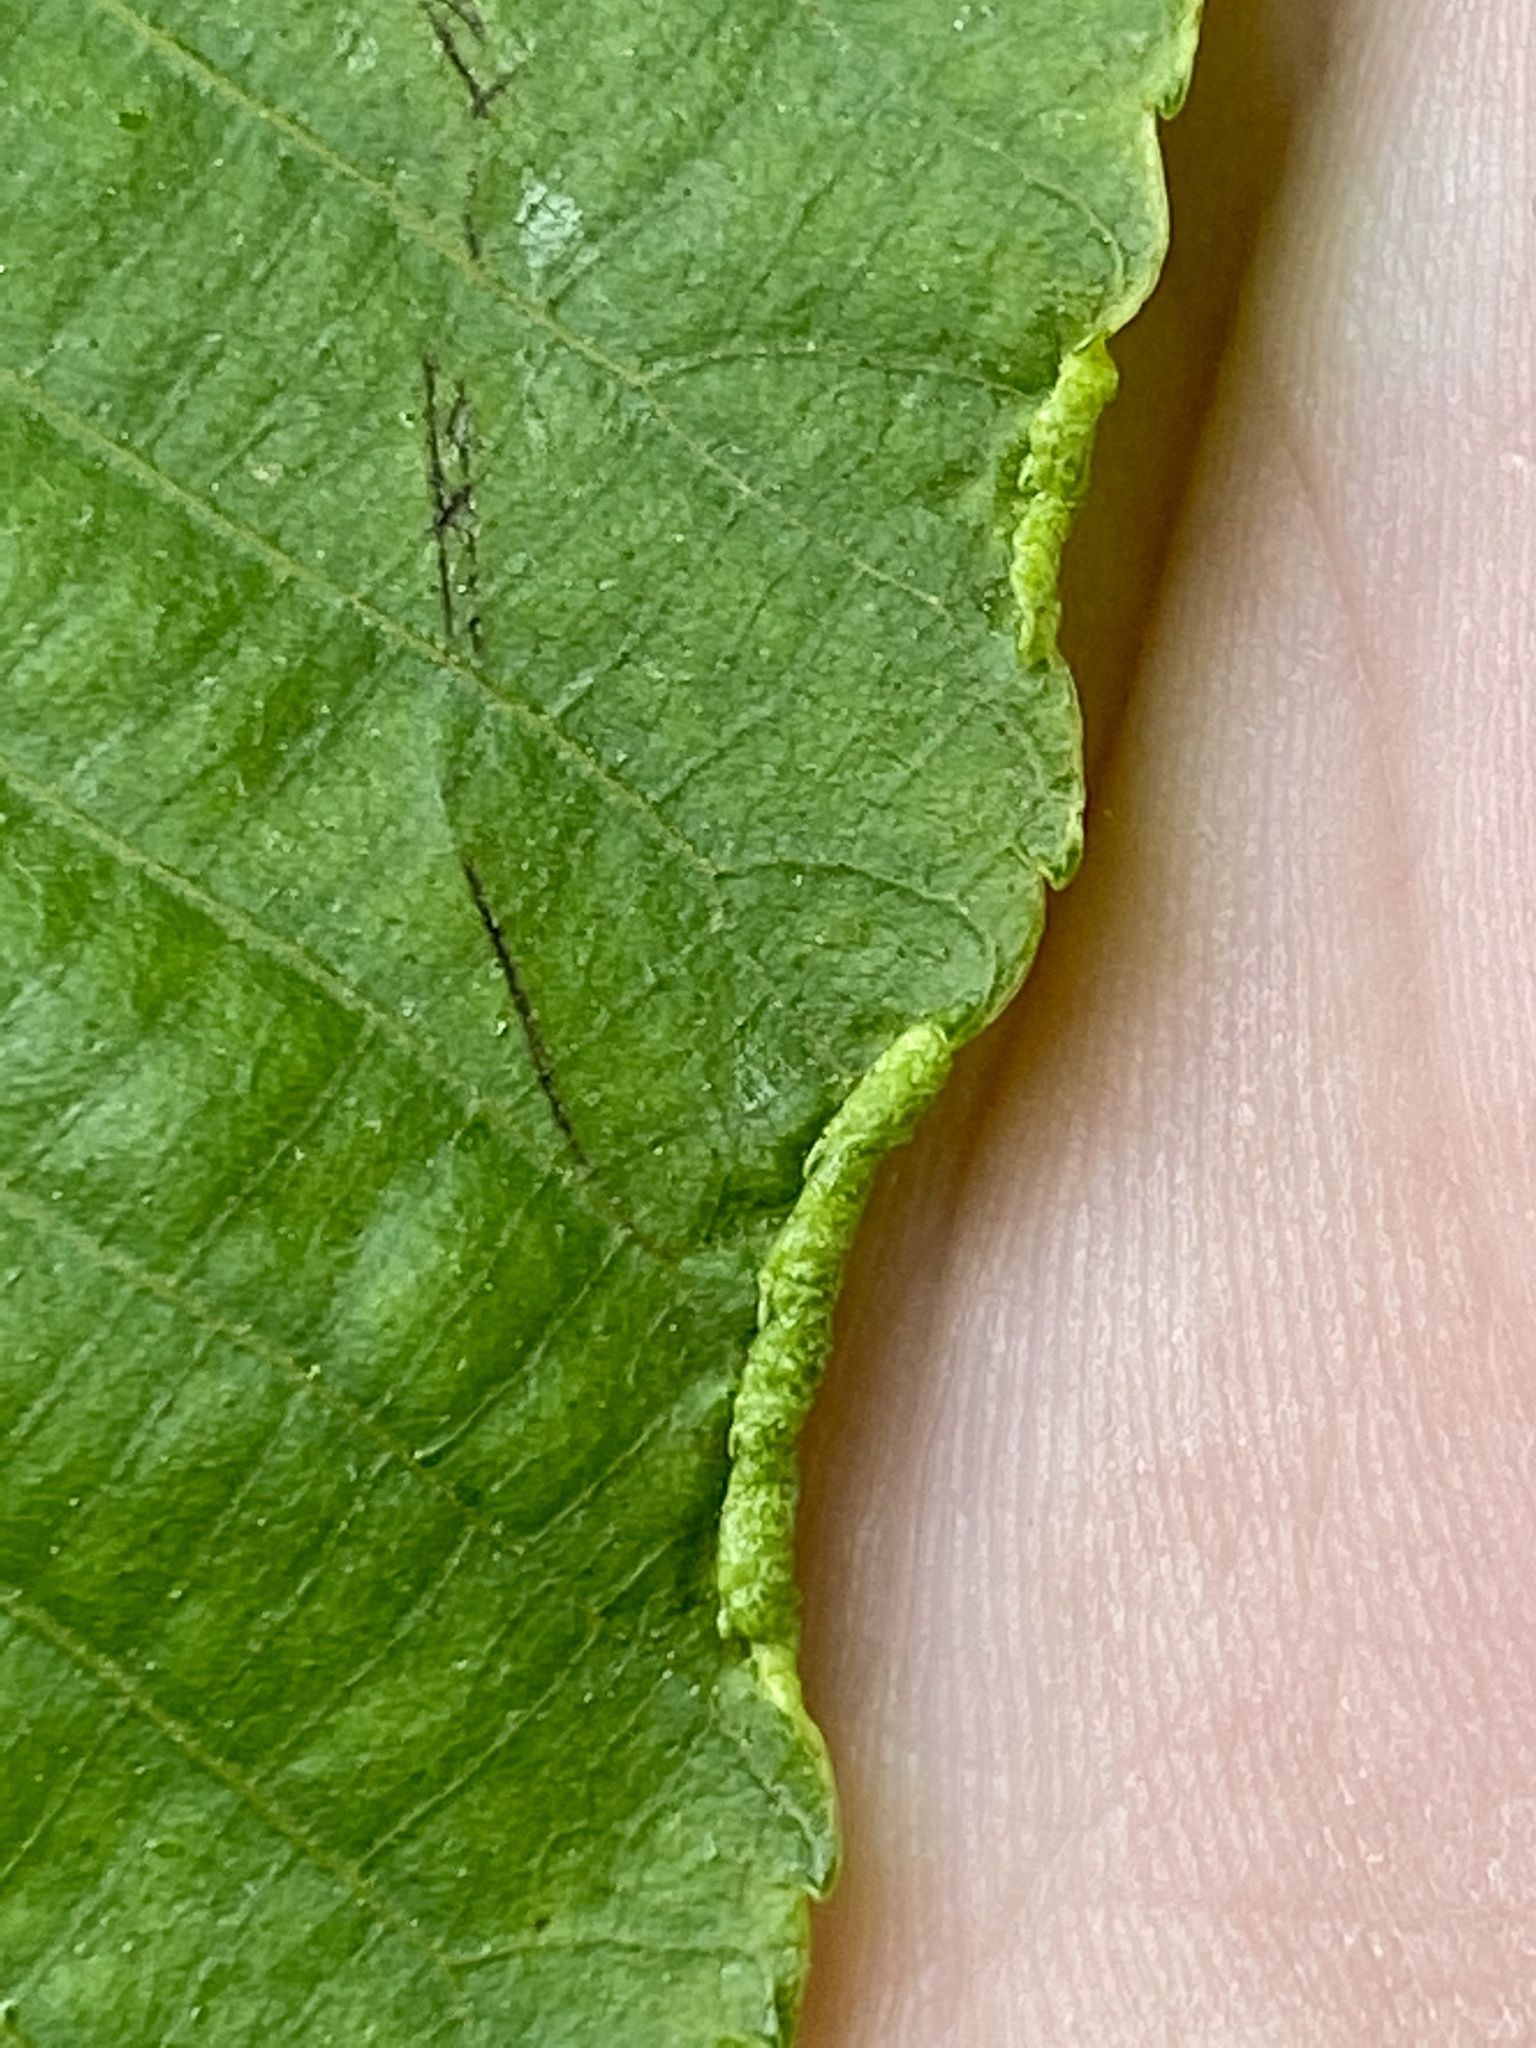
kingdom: Animalia
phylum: Arthropoda
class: Arachnida
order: Trombidiformes
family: Eriophyidae
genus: Aceria
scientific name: Aceria carlinae
